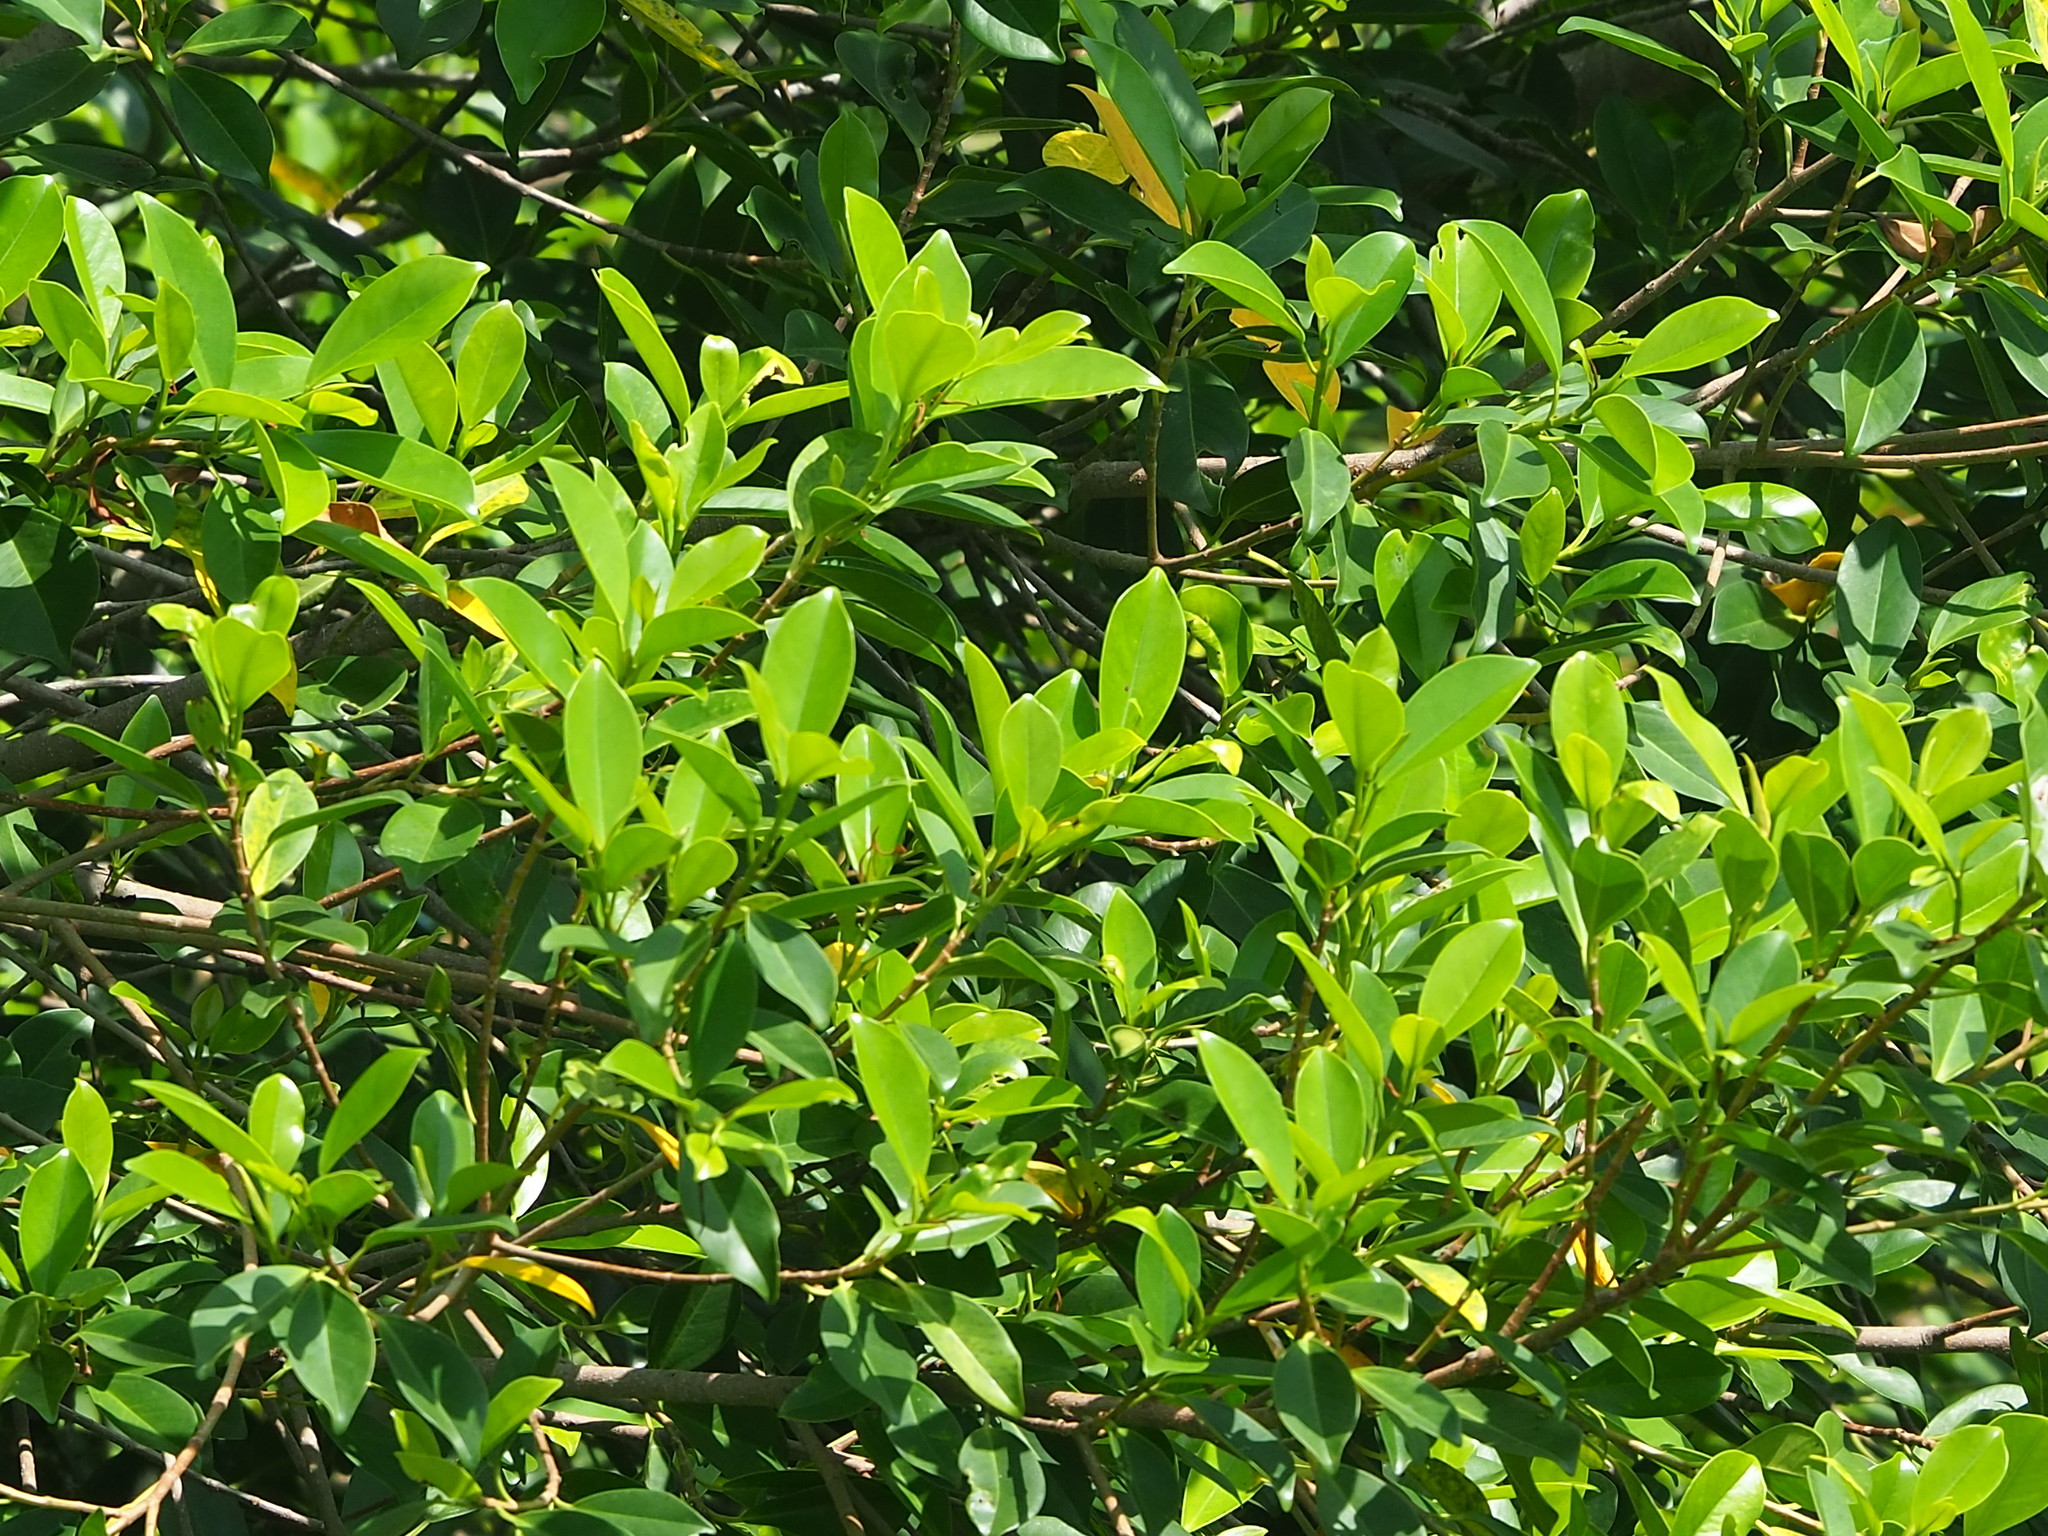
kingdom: Plantae
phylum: Tracheophyta
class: Magnoliopsida
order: Rosales
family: Moraceae
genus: Ficus
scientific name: Ficus microcarpa
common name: Chinese banyan
